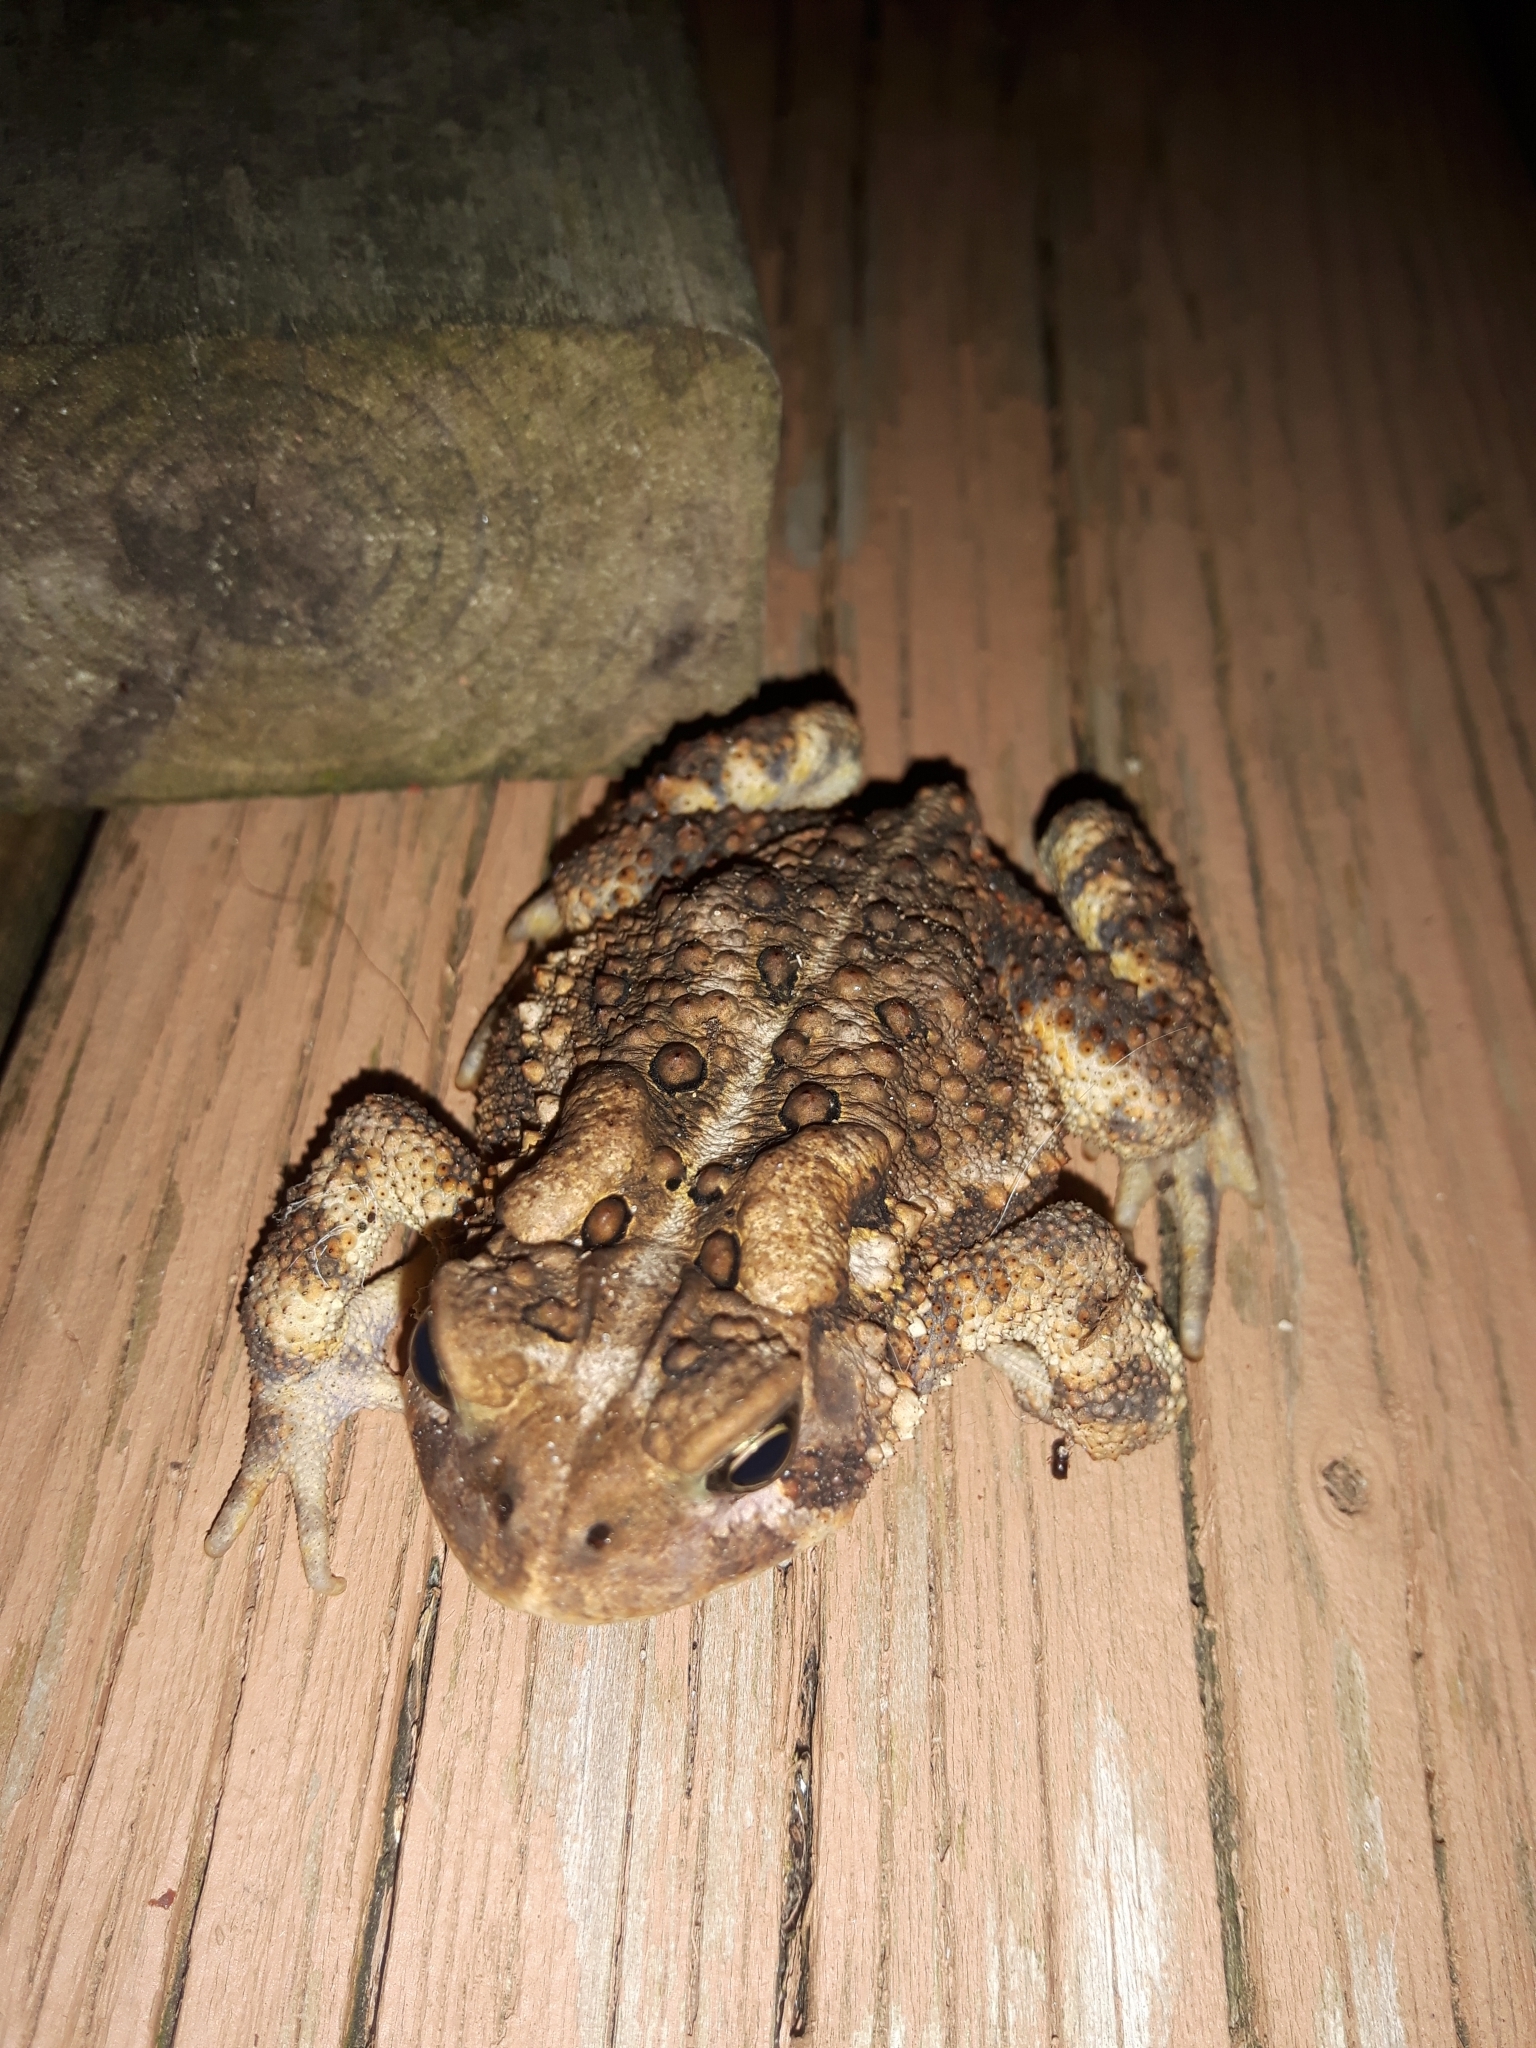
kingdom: Animalia
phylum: Chordata
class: Amphibia
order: Anura
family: Bufonidae
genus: Anaxyrus
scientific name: Anaxyrus americanus
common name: American toad
